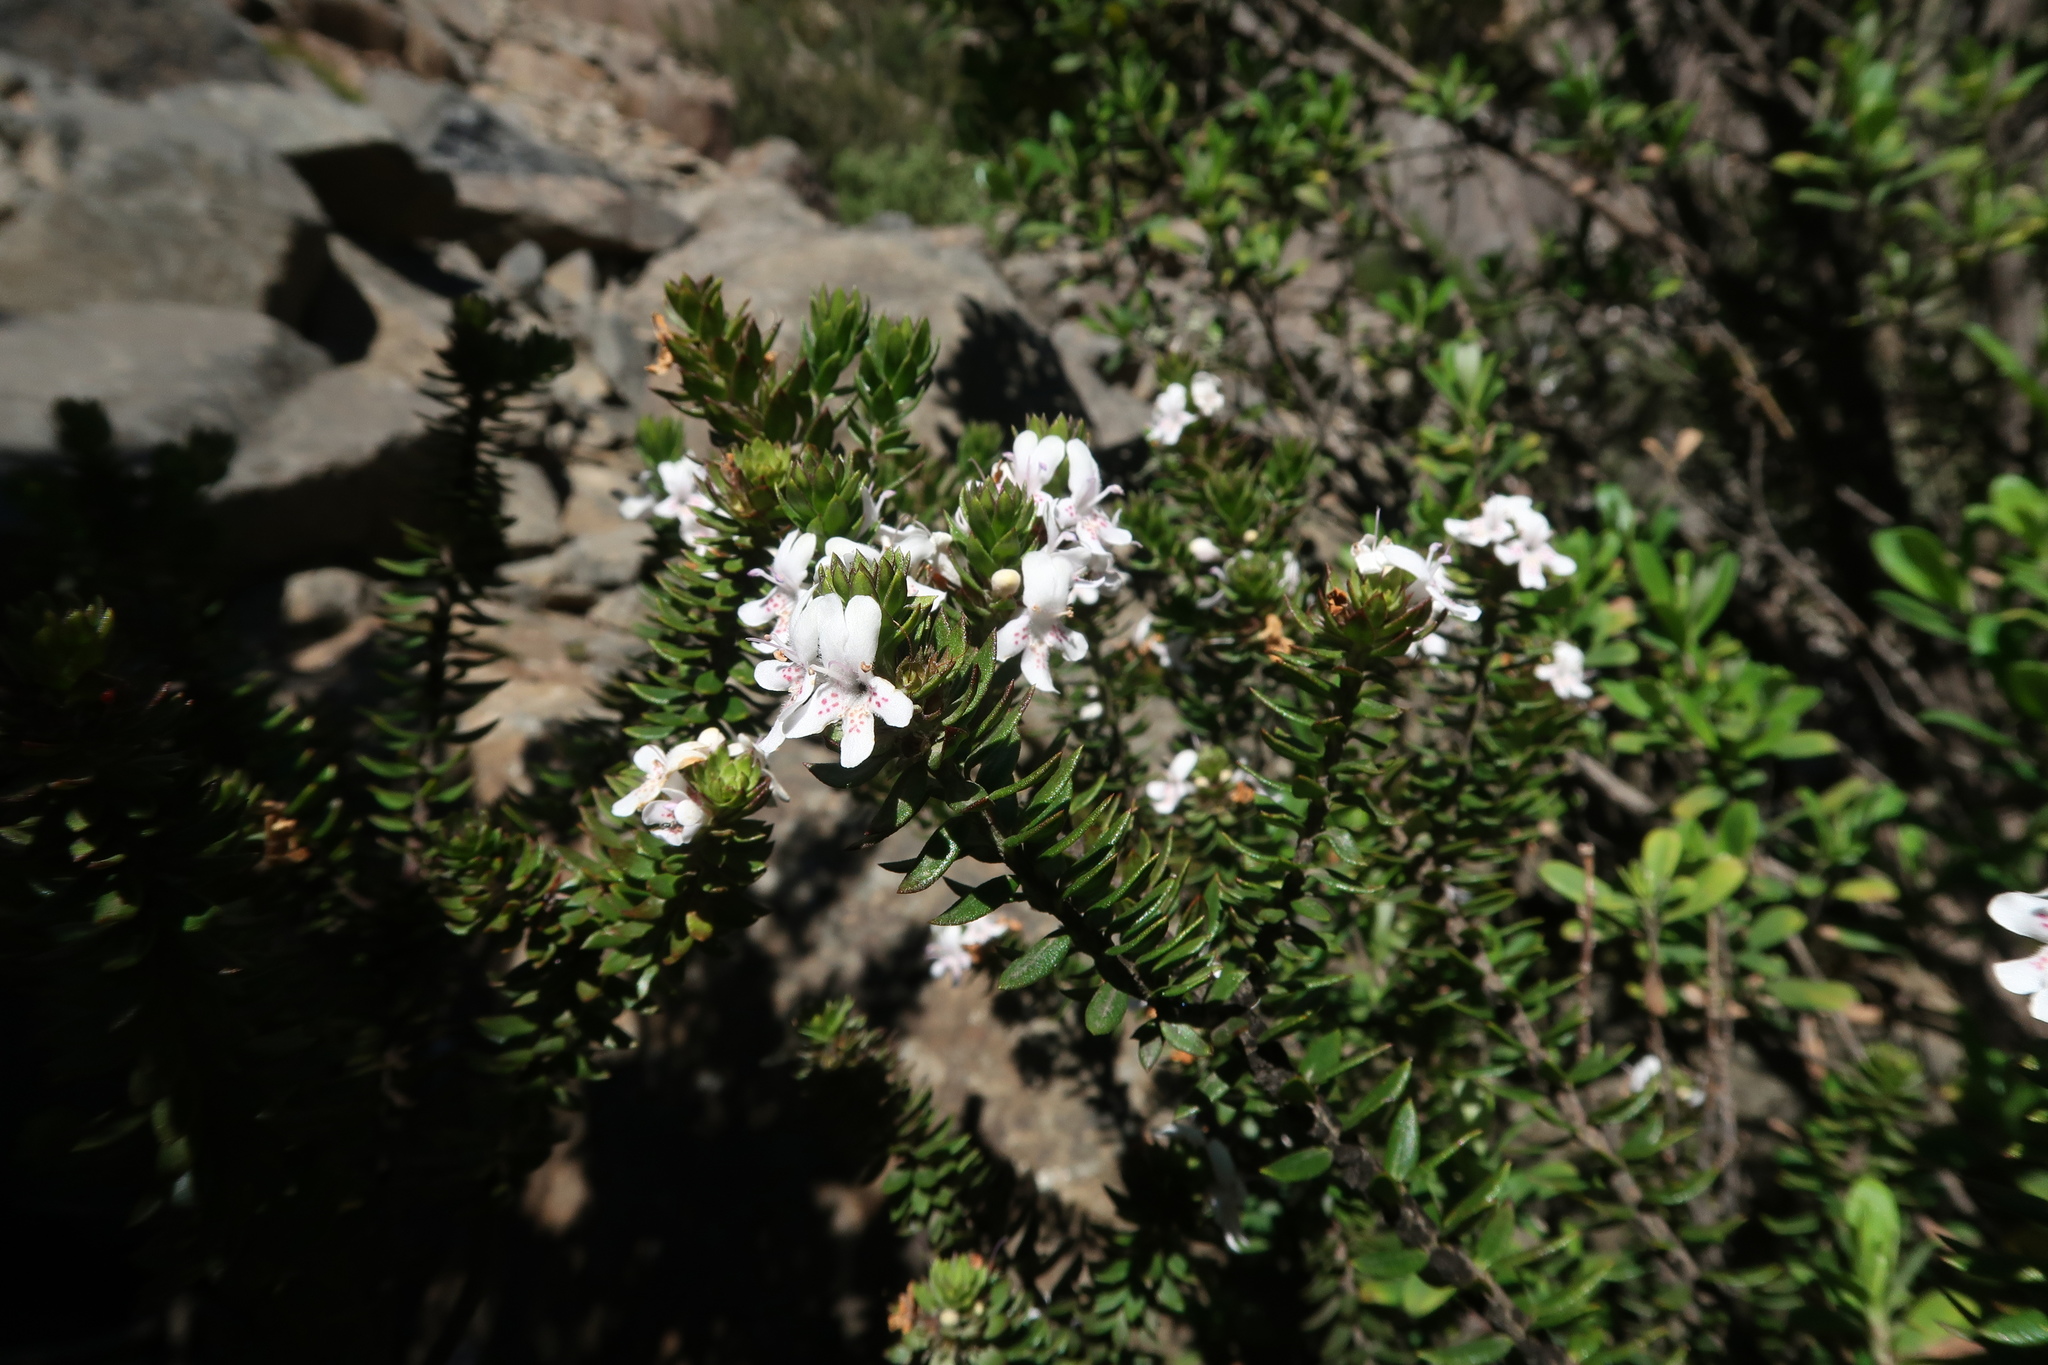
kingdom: Plantae
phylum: Tracheophyta
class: Magnoliopsida
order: Lamiales
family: Lamiaceae
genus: Westringia
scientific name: Westringia rubiifolia
